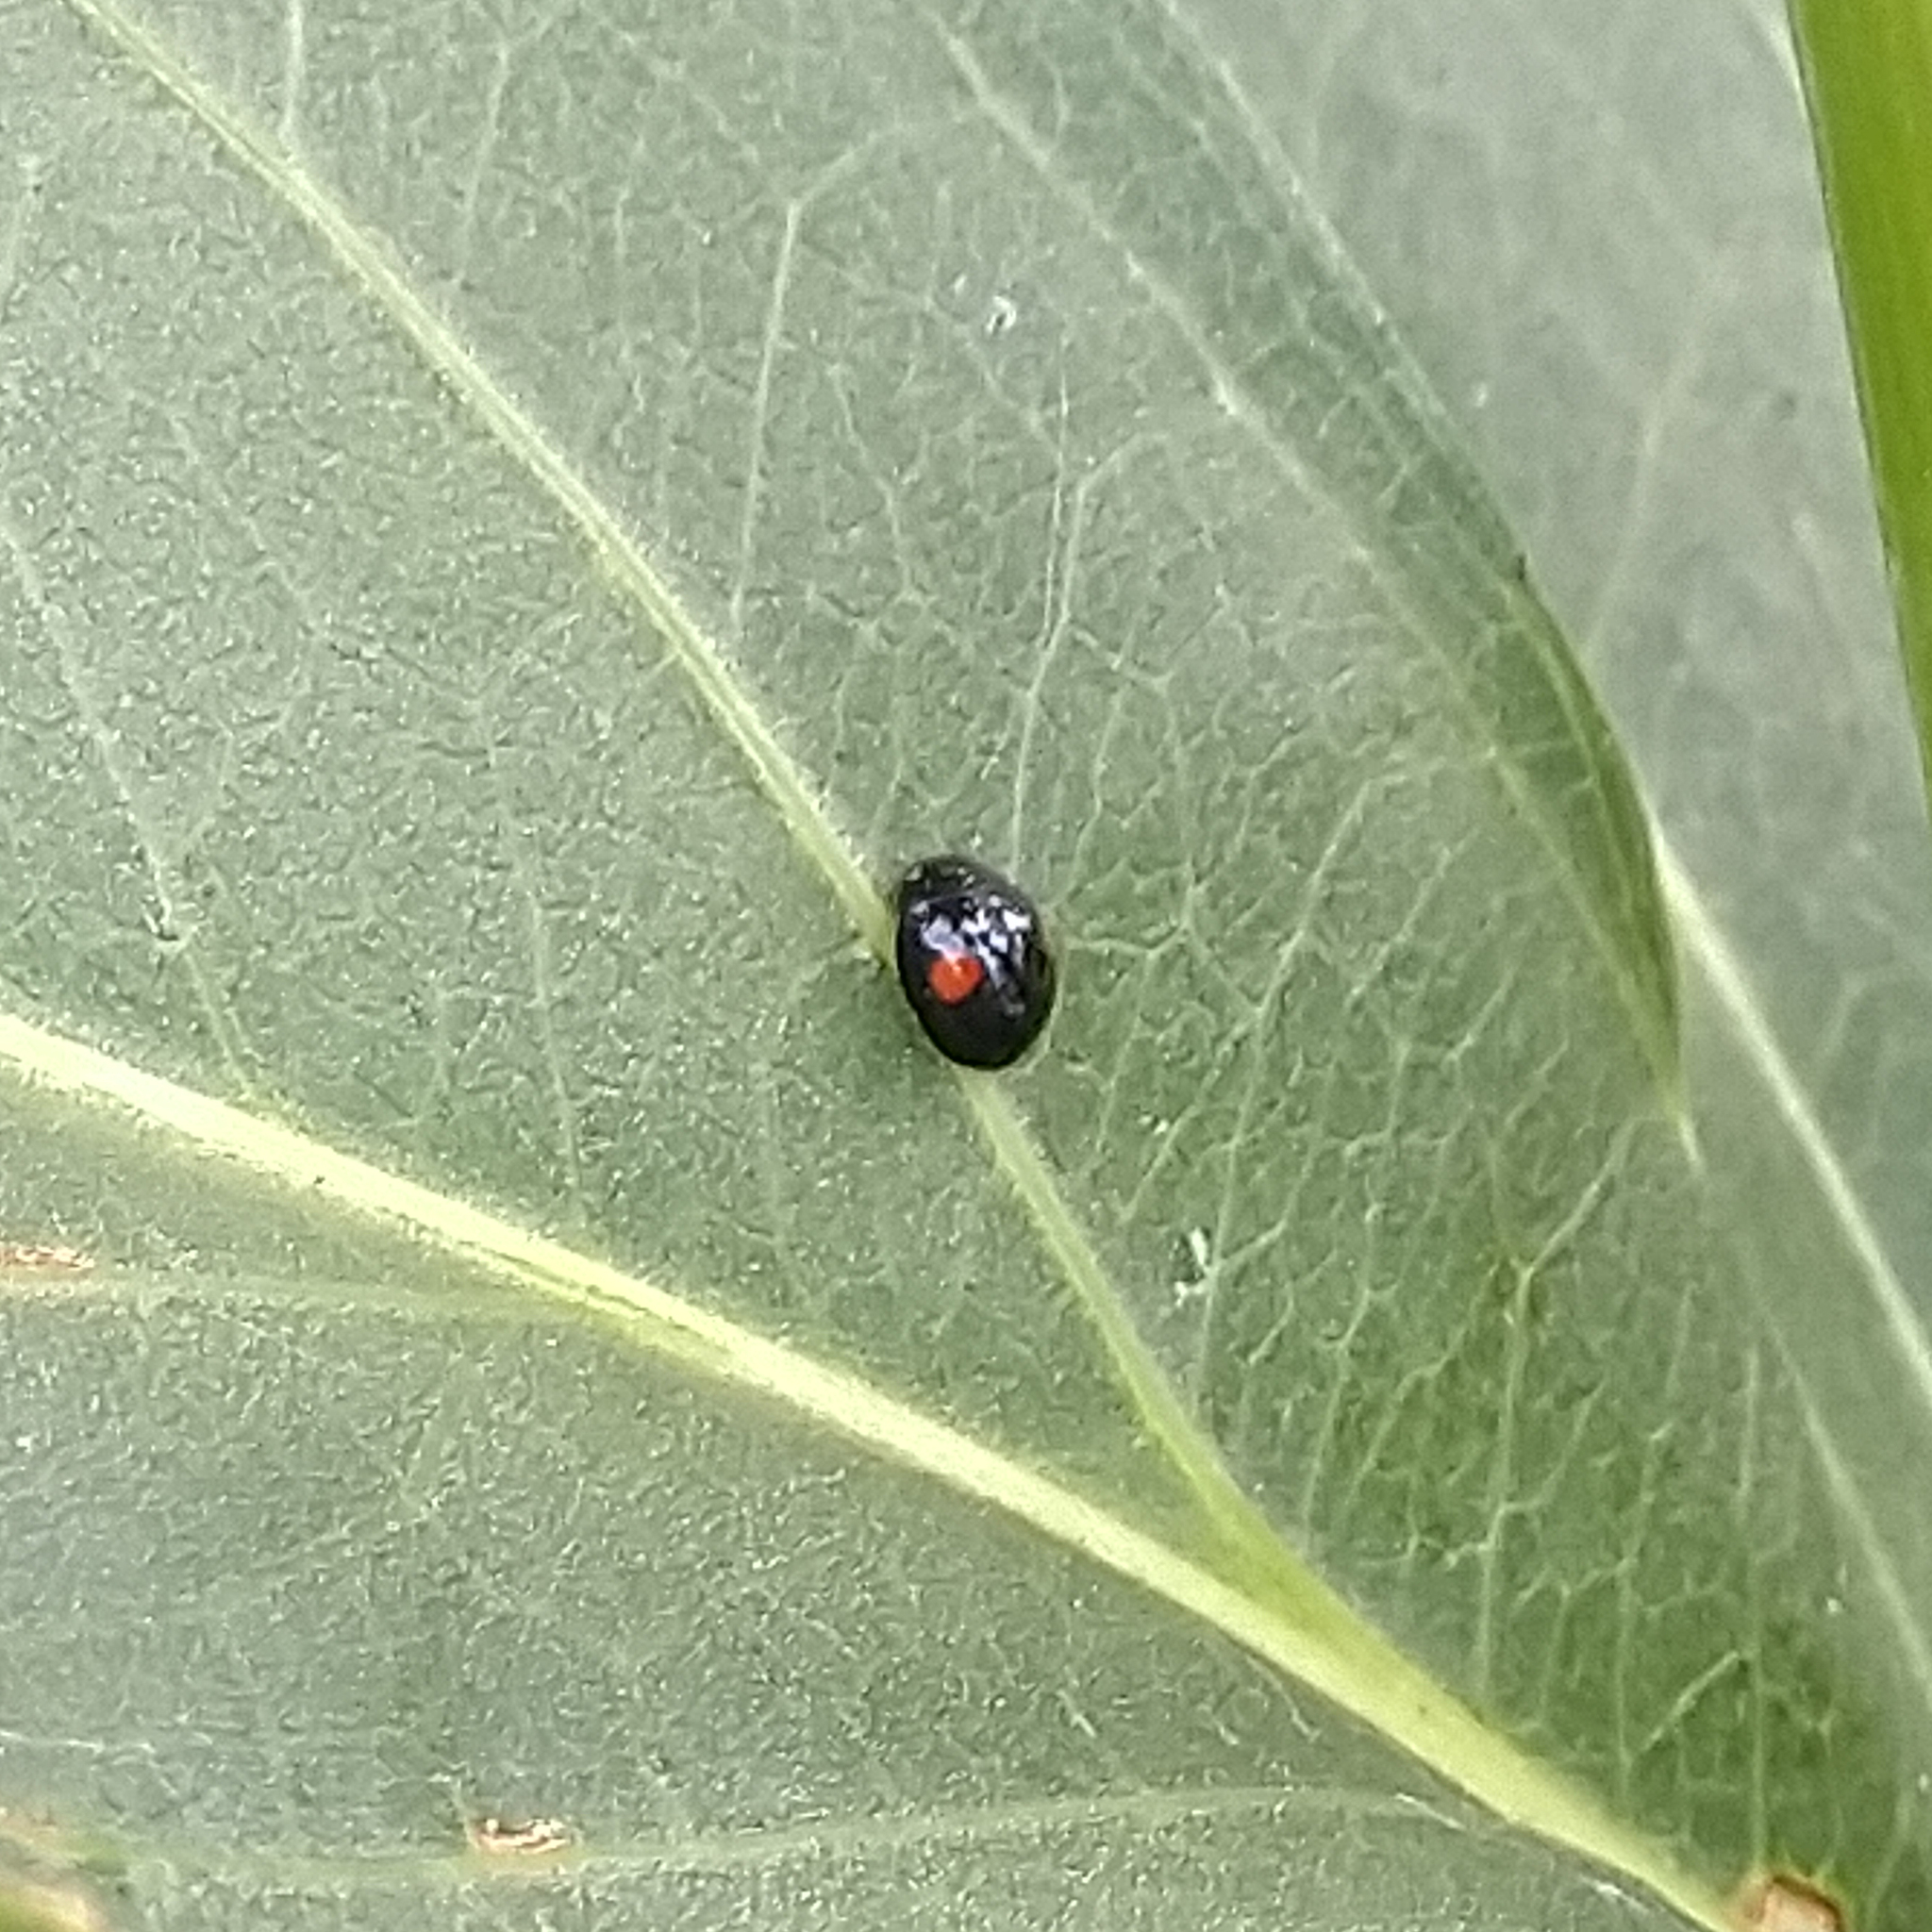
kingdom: Animalia
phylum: Arthropoda
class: Insecta
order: Coleoptera
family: Coccinellidae
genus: Chilocorus
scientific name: Chilocorus stigma
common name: Twicestabbed lady beetle
